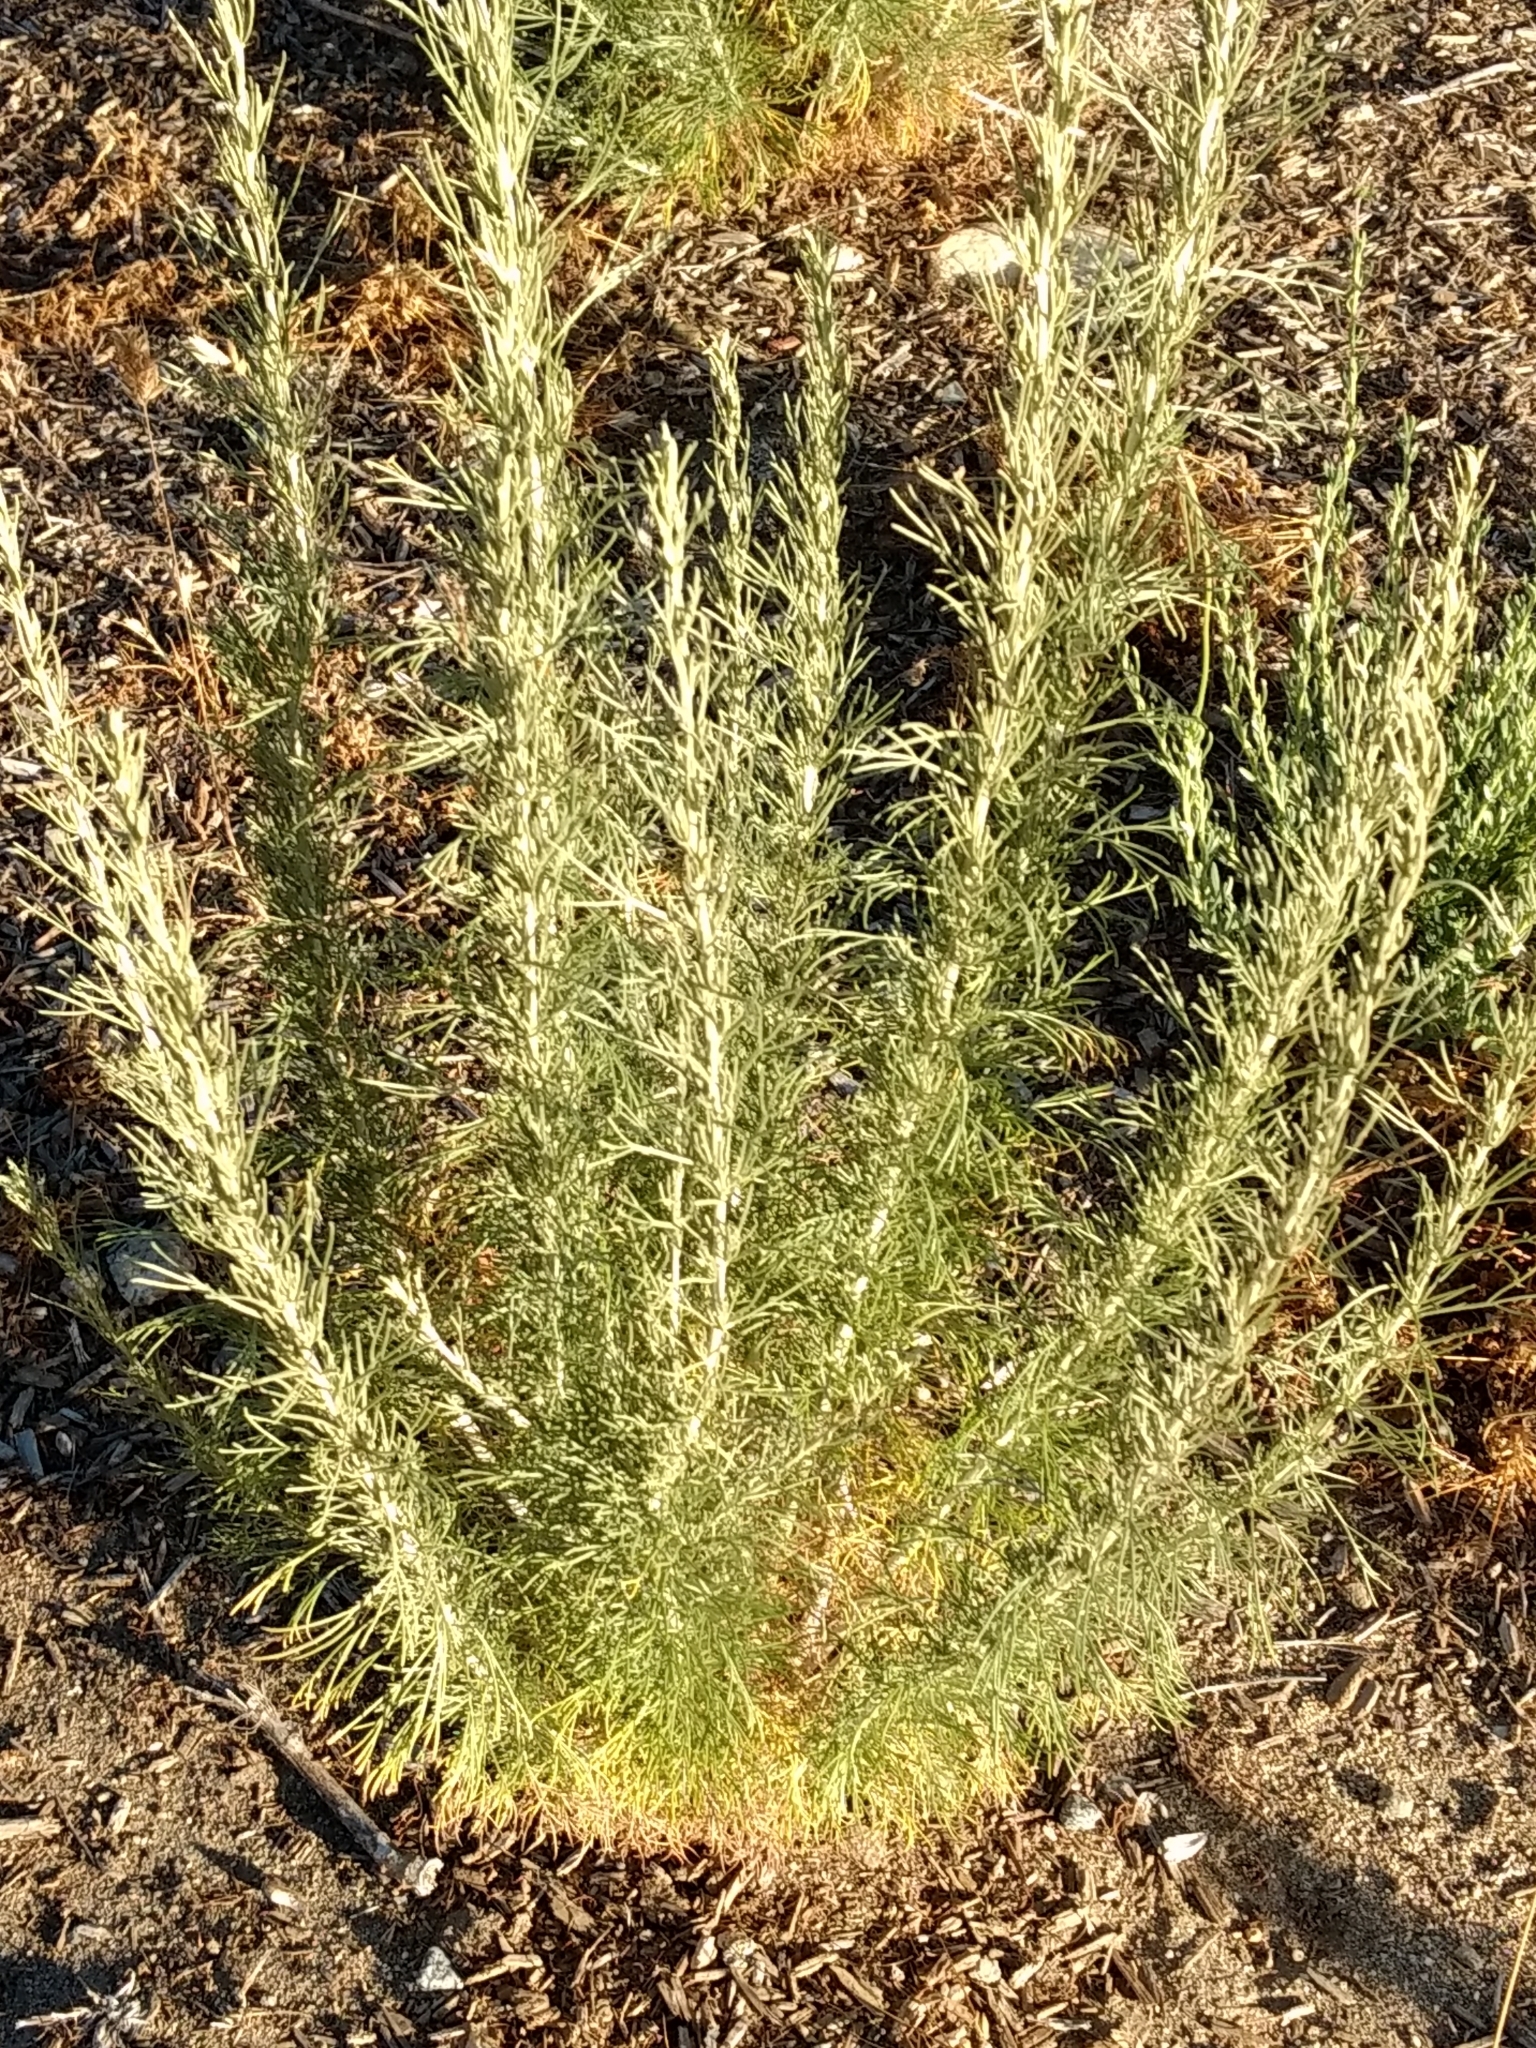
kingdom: Plantae
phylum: Tracheophyta
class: Magnoliopsida
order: Asterales
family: Asteraceae
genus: Artemisia
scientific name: Artemisia californica
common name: California sagebrush
